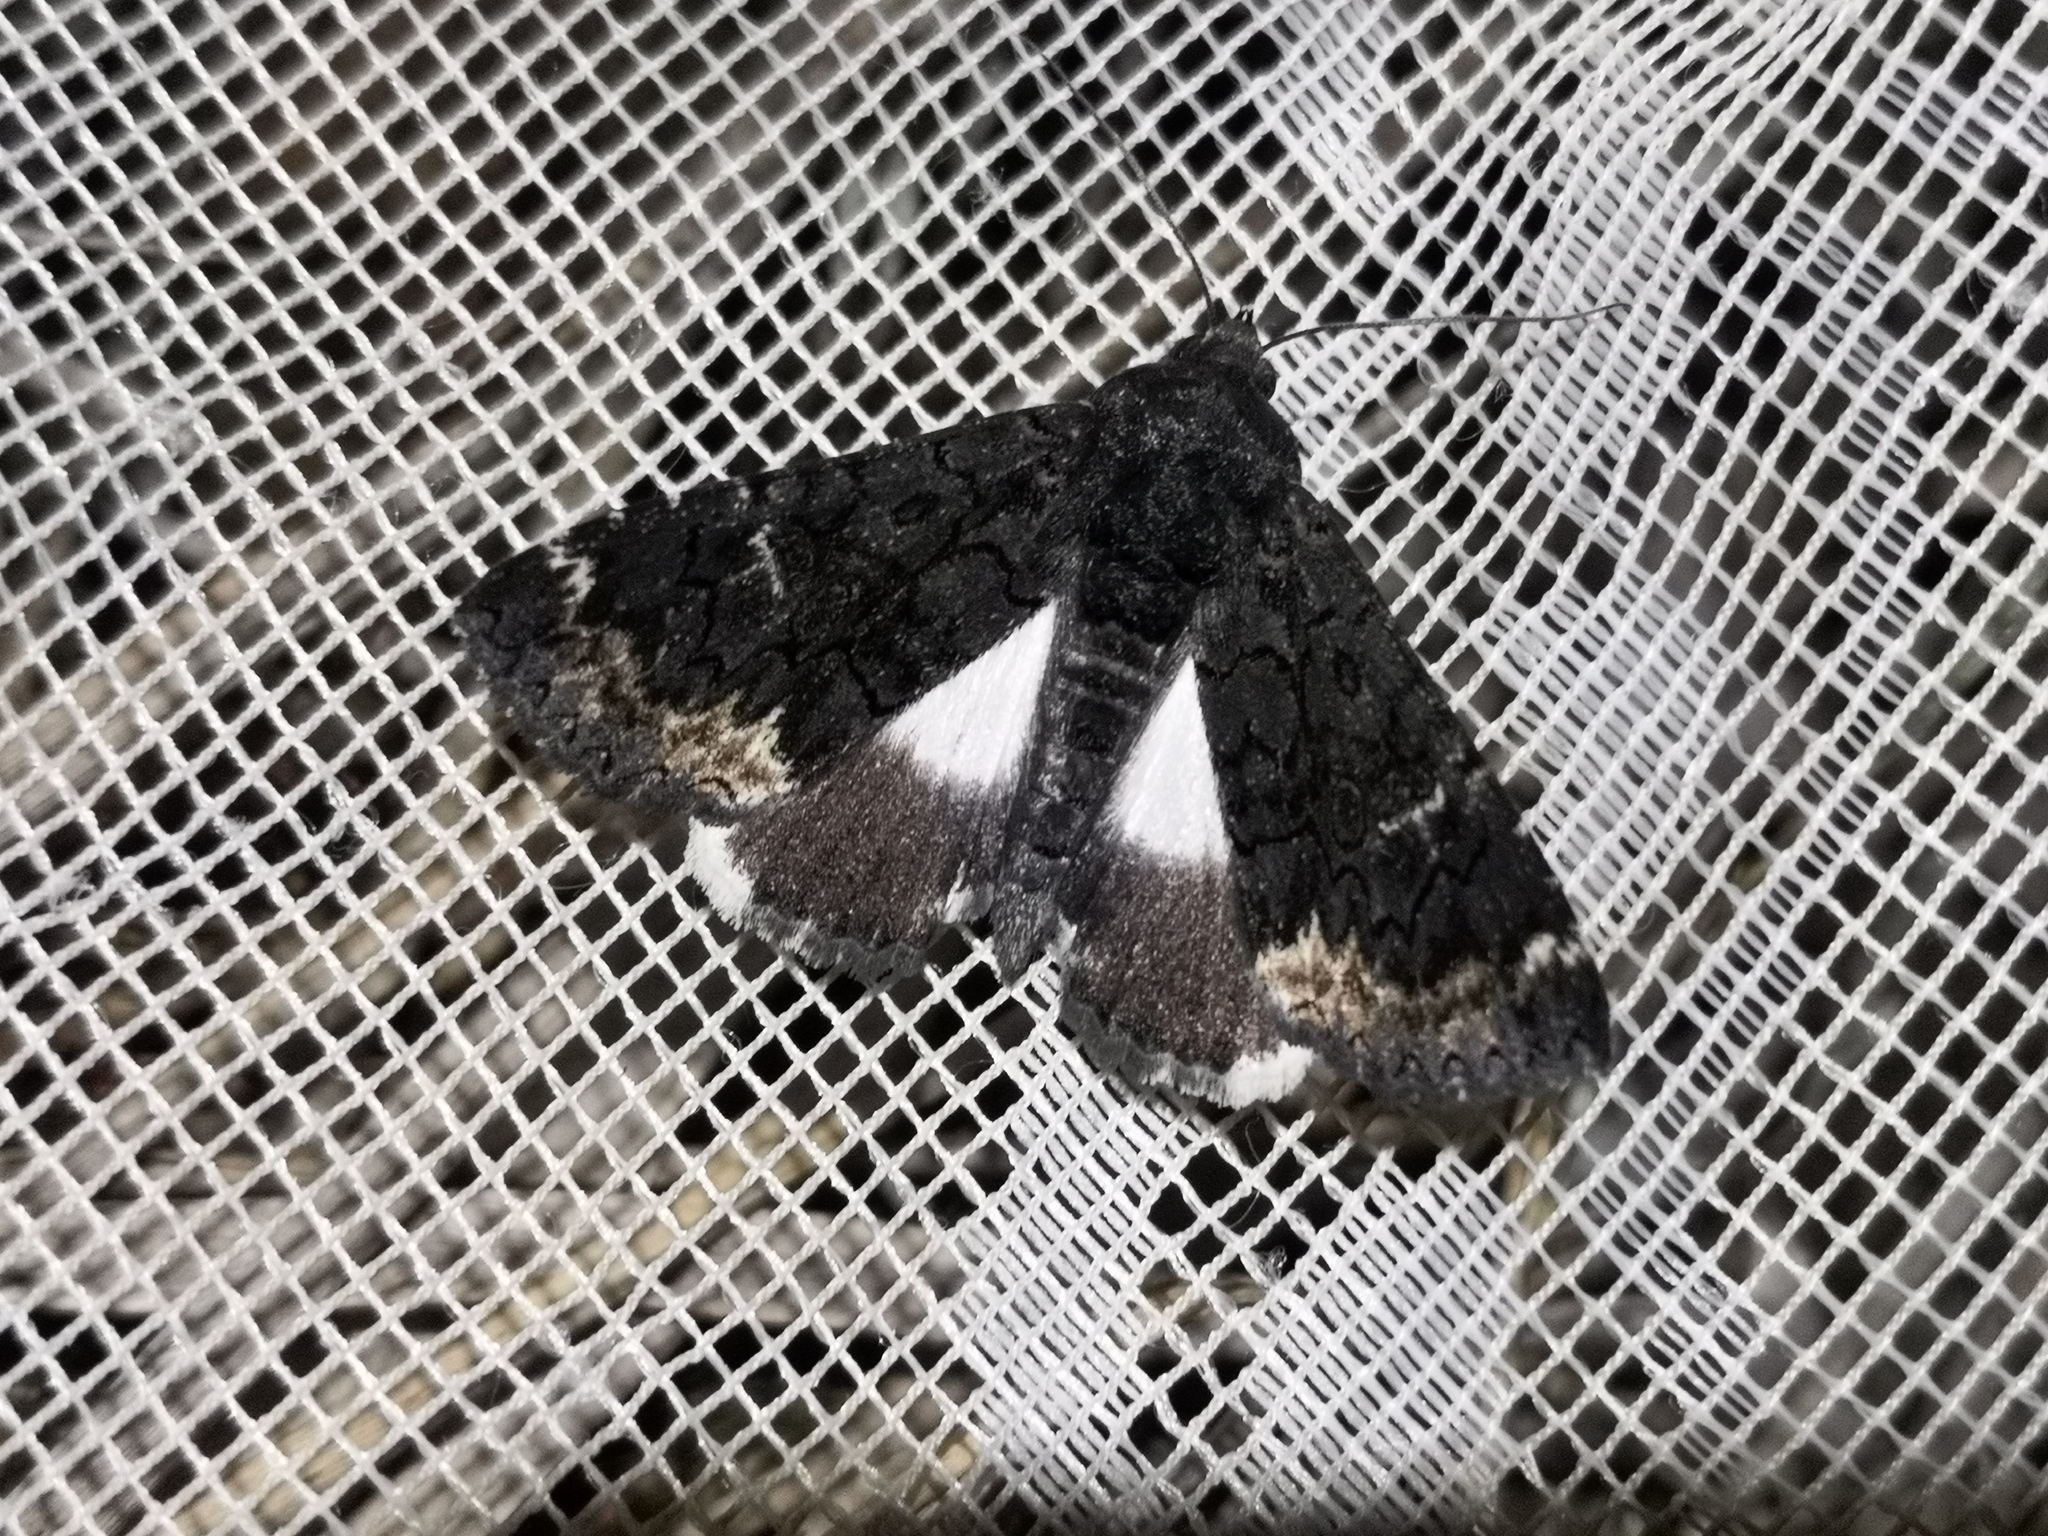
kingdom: Animalia
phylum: Arthropoda
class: Insecta
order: Lepidoptera
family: Erebidae
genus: Catephia
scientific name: Catephia alchymista
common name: Alchymist
